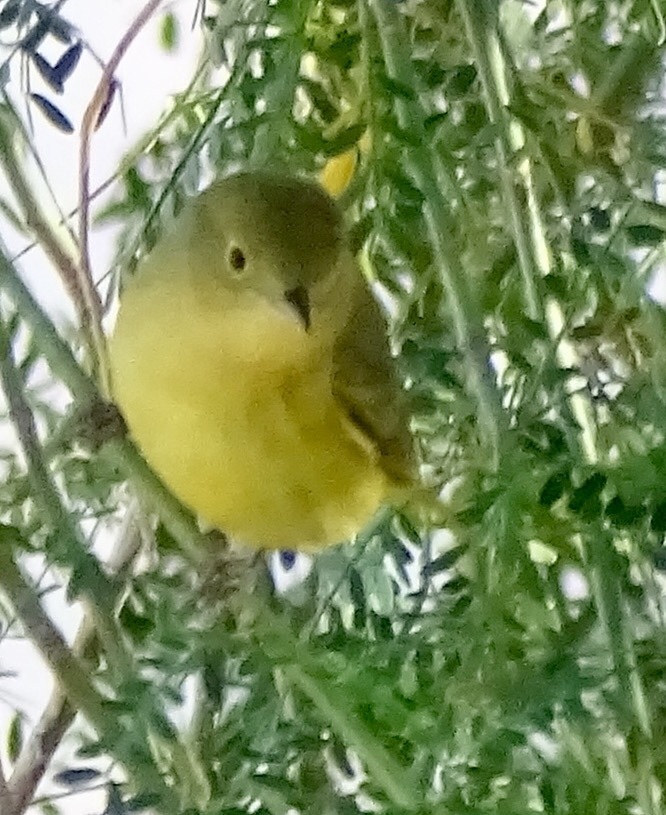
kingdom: Animalia
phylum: Chordata
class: Aves
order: Passeriformes
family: Parulidae
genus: Setophaga
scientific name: Setophaga petechia
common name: Yellow warbler
